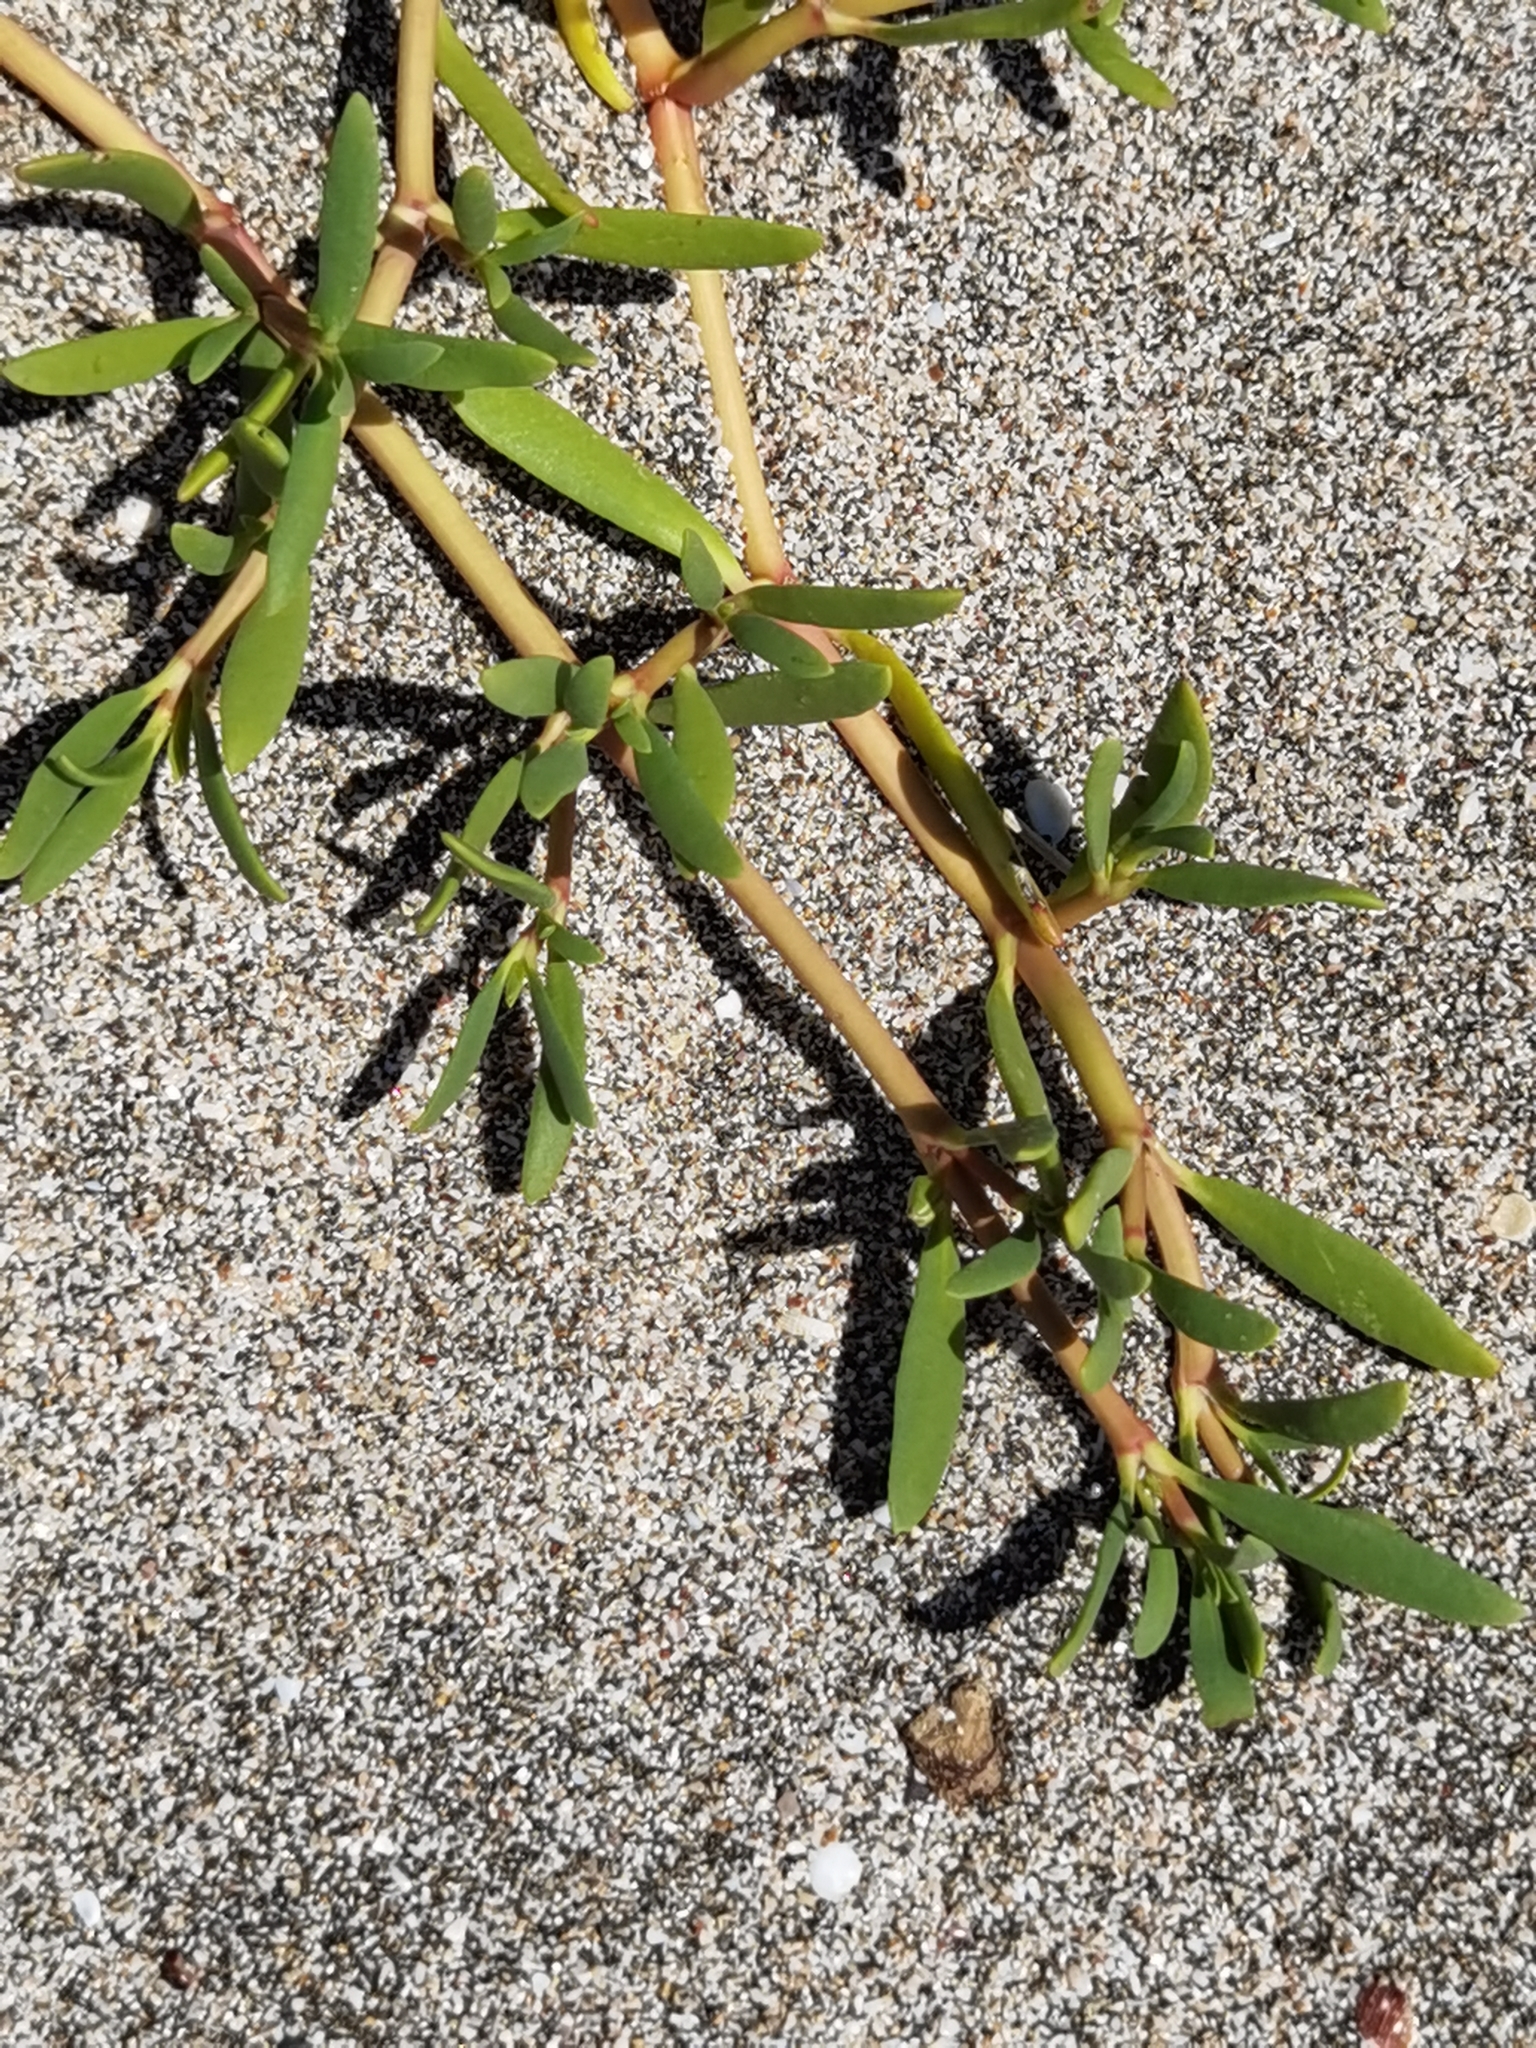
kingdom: Plantae
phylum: Tracheophyta
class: Magnoliopsida
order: Caryophyllales
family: Aizoaceae
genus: Sesuvium
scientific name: Sesuvium portulacastrum
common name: Sea-purslane
